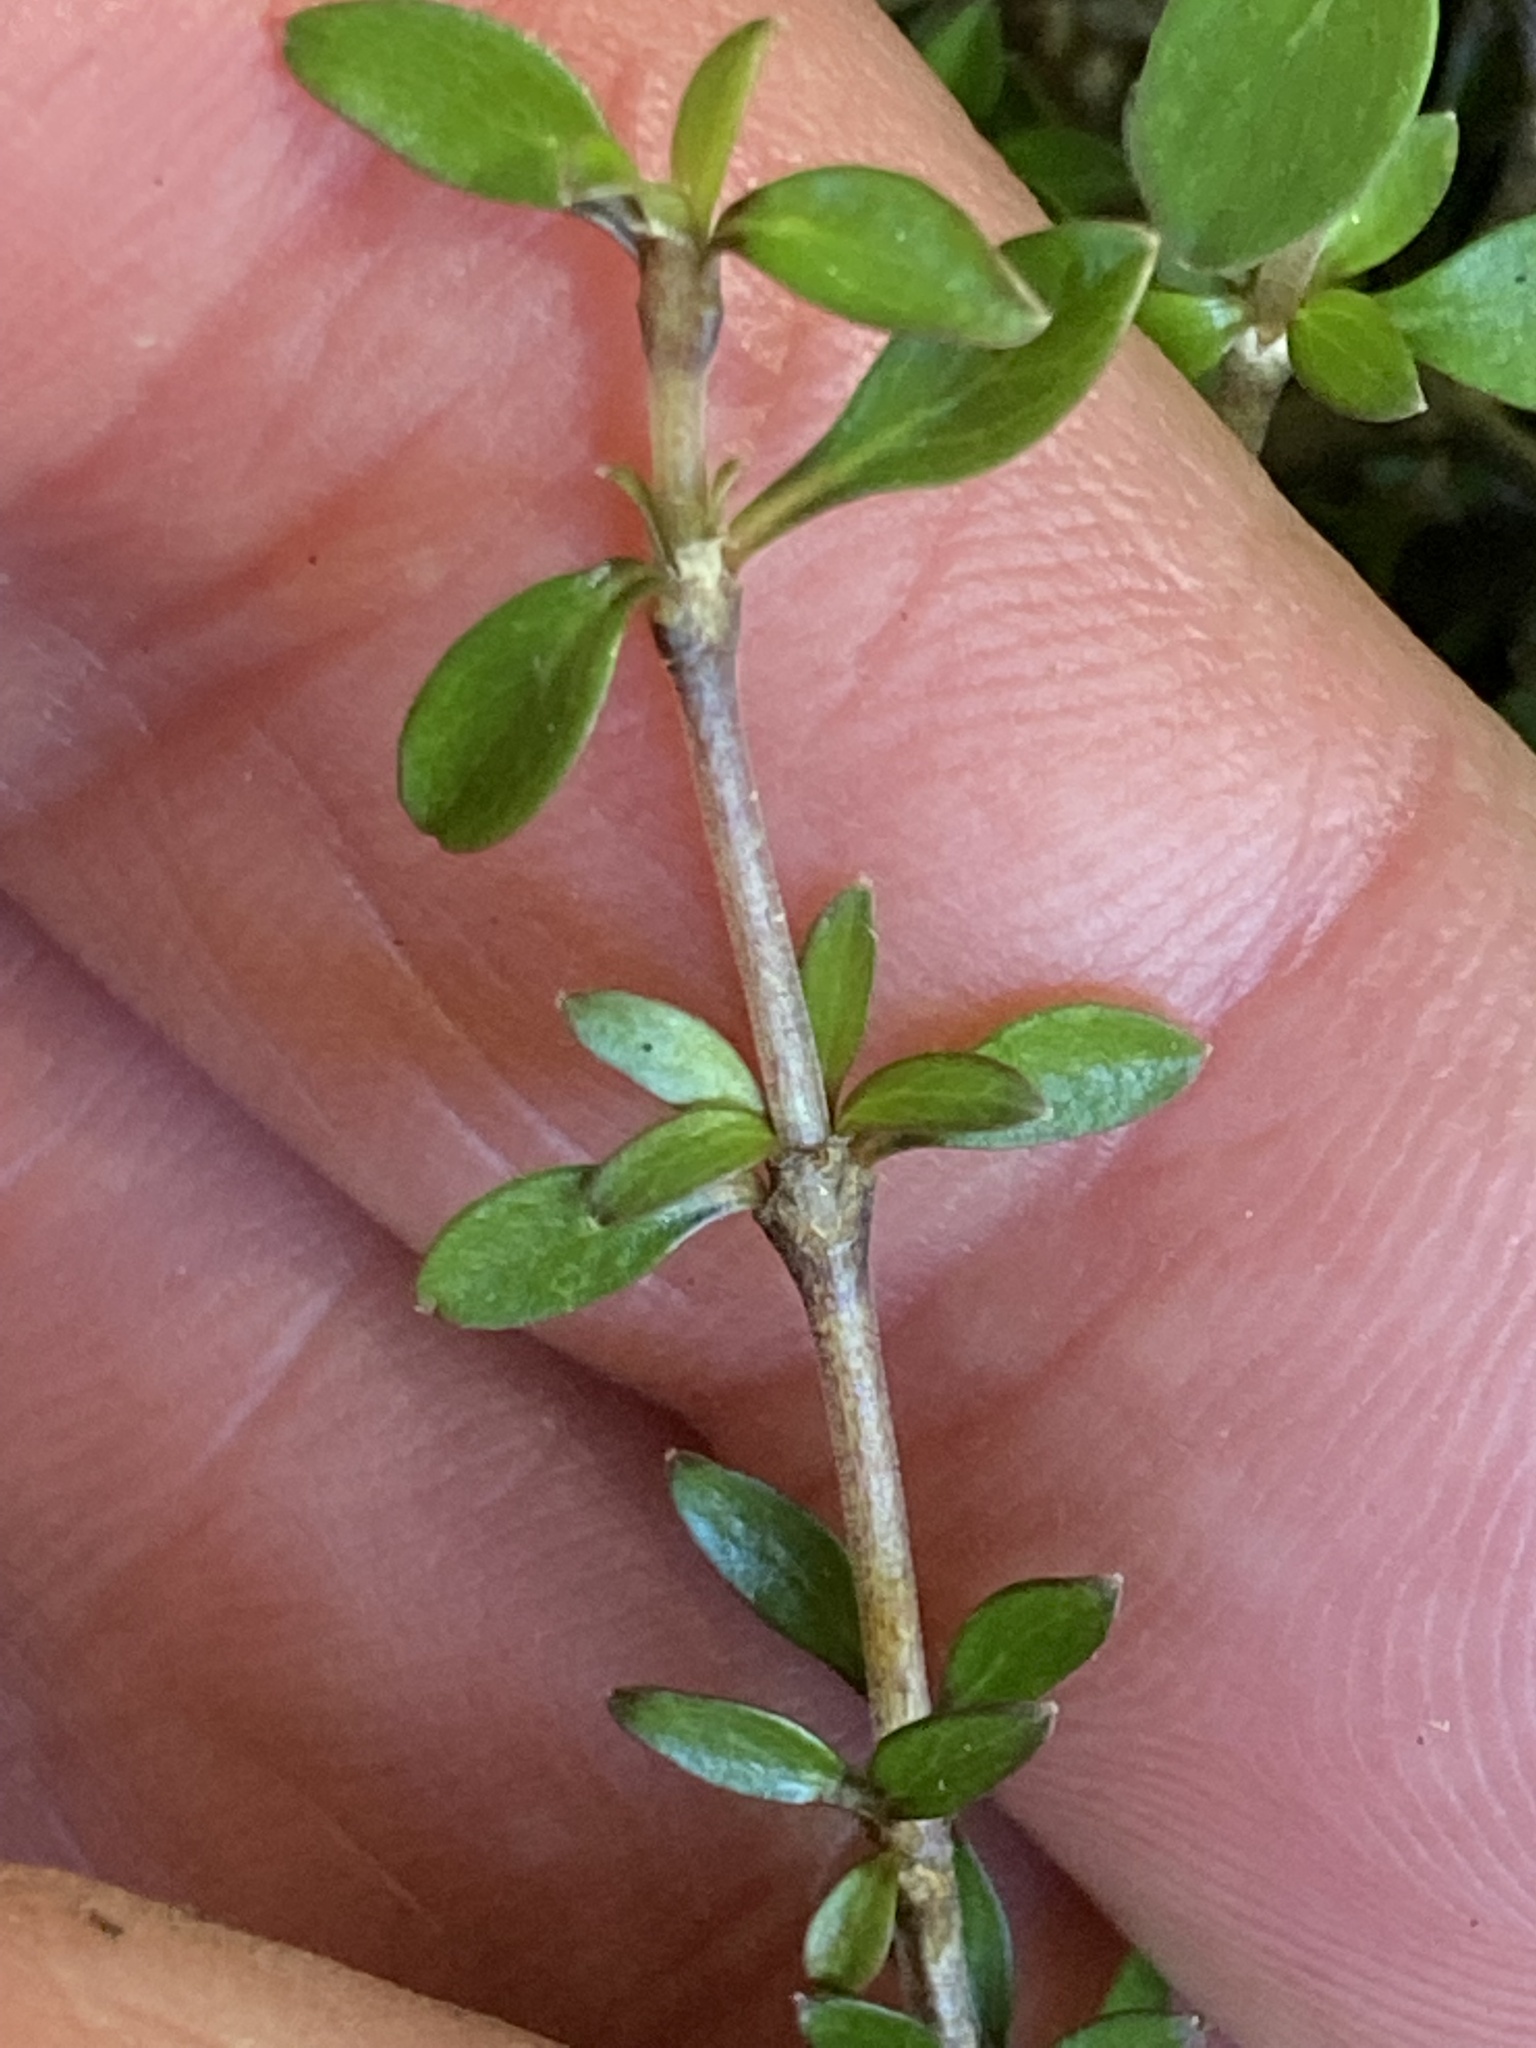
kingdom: Plantae
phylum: Tracheophyta
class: Magnoliopsida
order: Gentianales
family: Rubiaceae
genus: Coprosma
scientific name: Coprosma depressa
